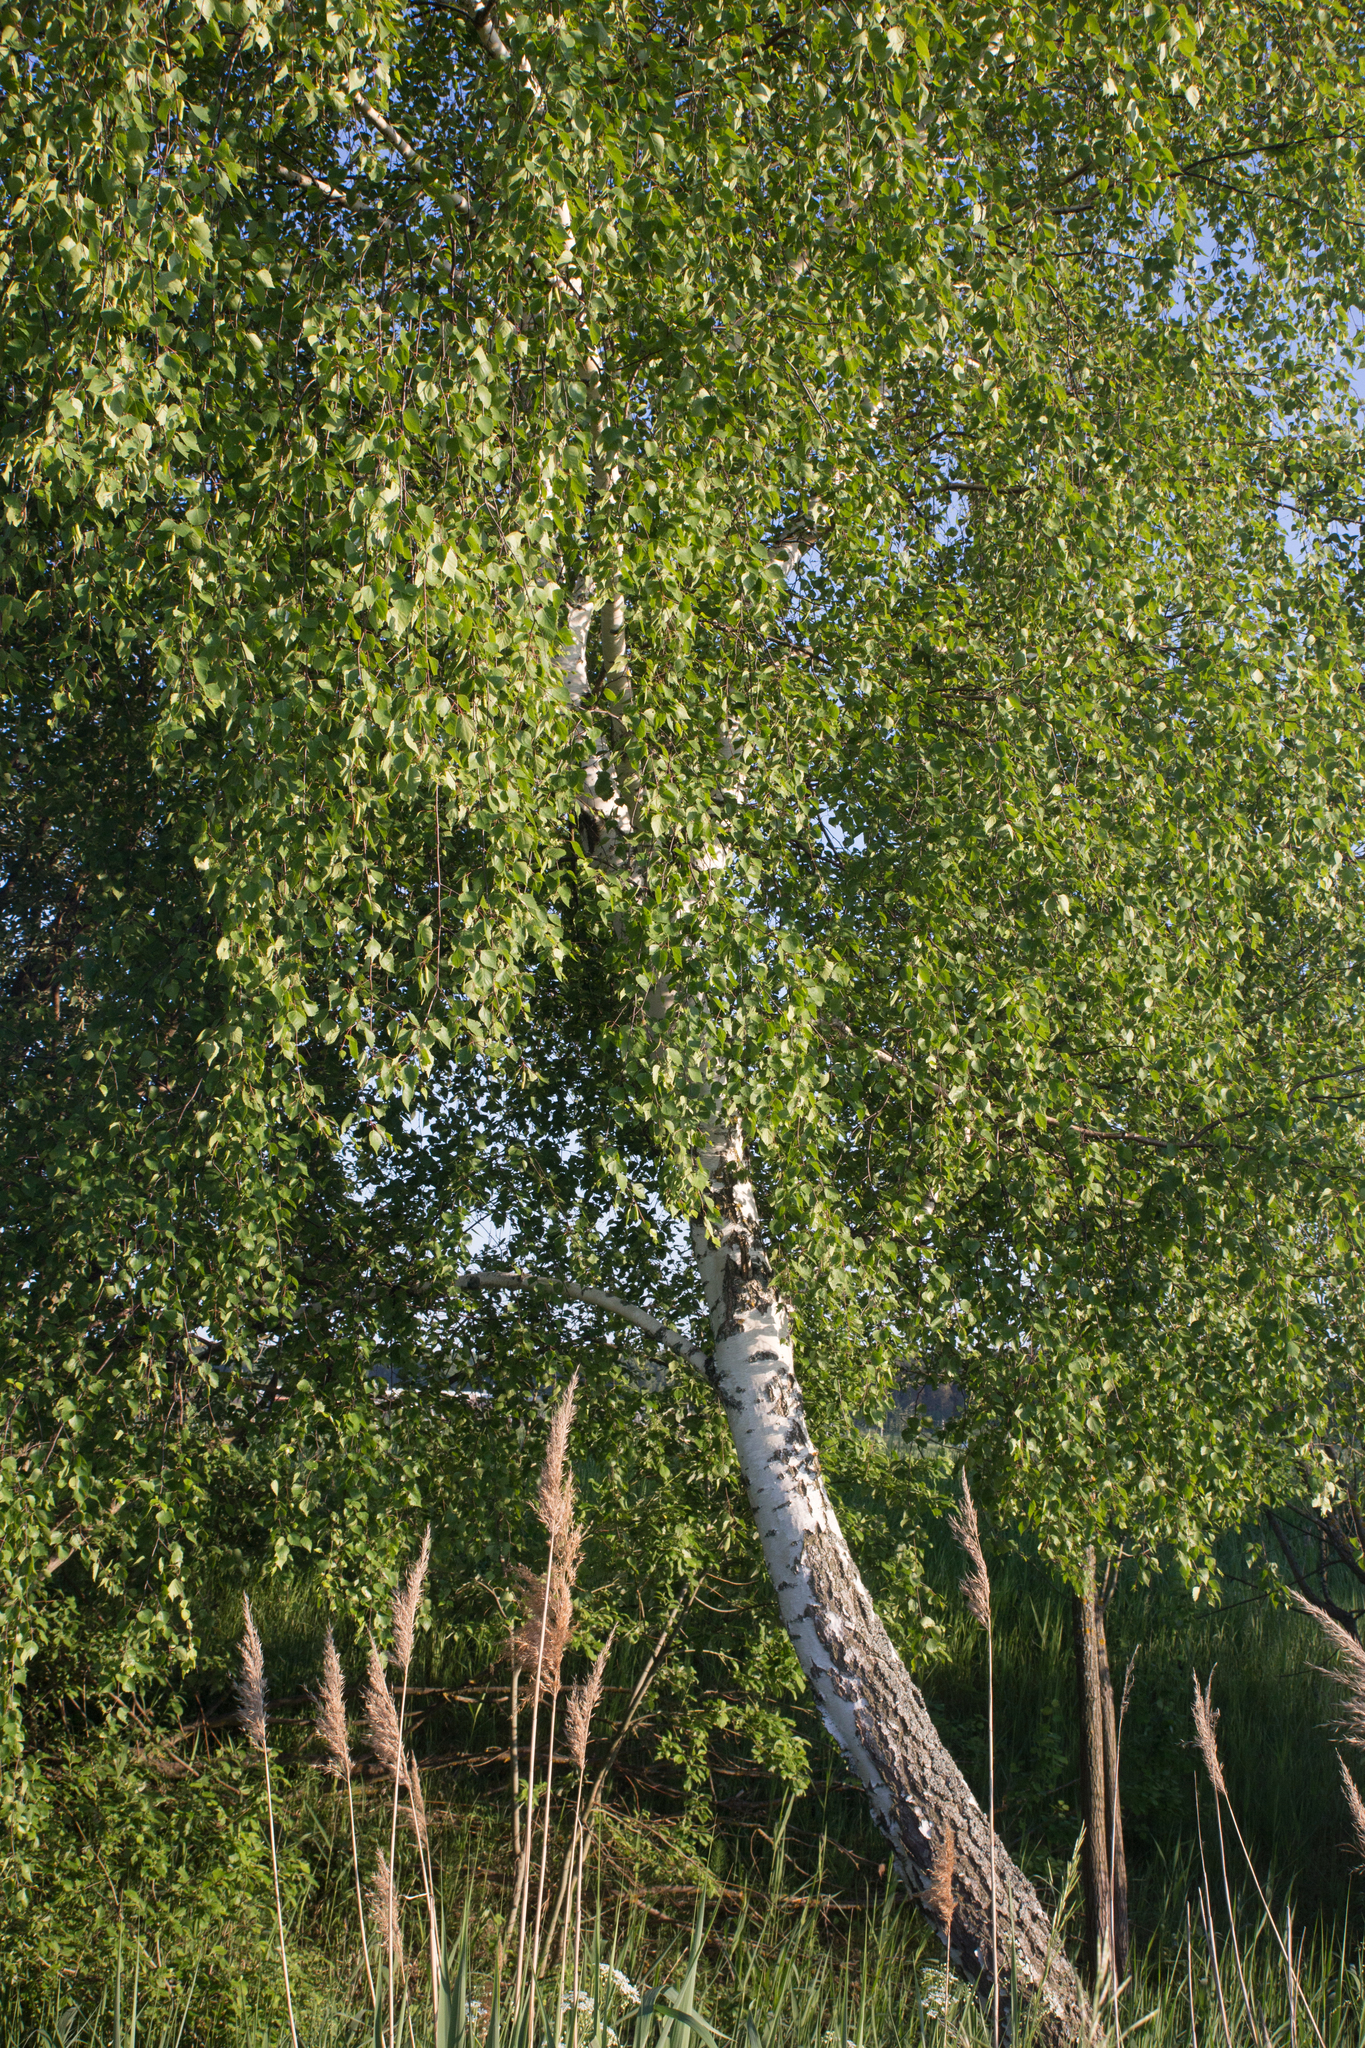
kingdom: Plantae
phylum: Tracheophyta
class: Magnoliopsida
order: Fagales
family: Betulaceae
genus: Betula
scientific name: Betula pendula
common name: Silver birch
